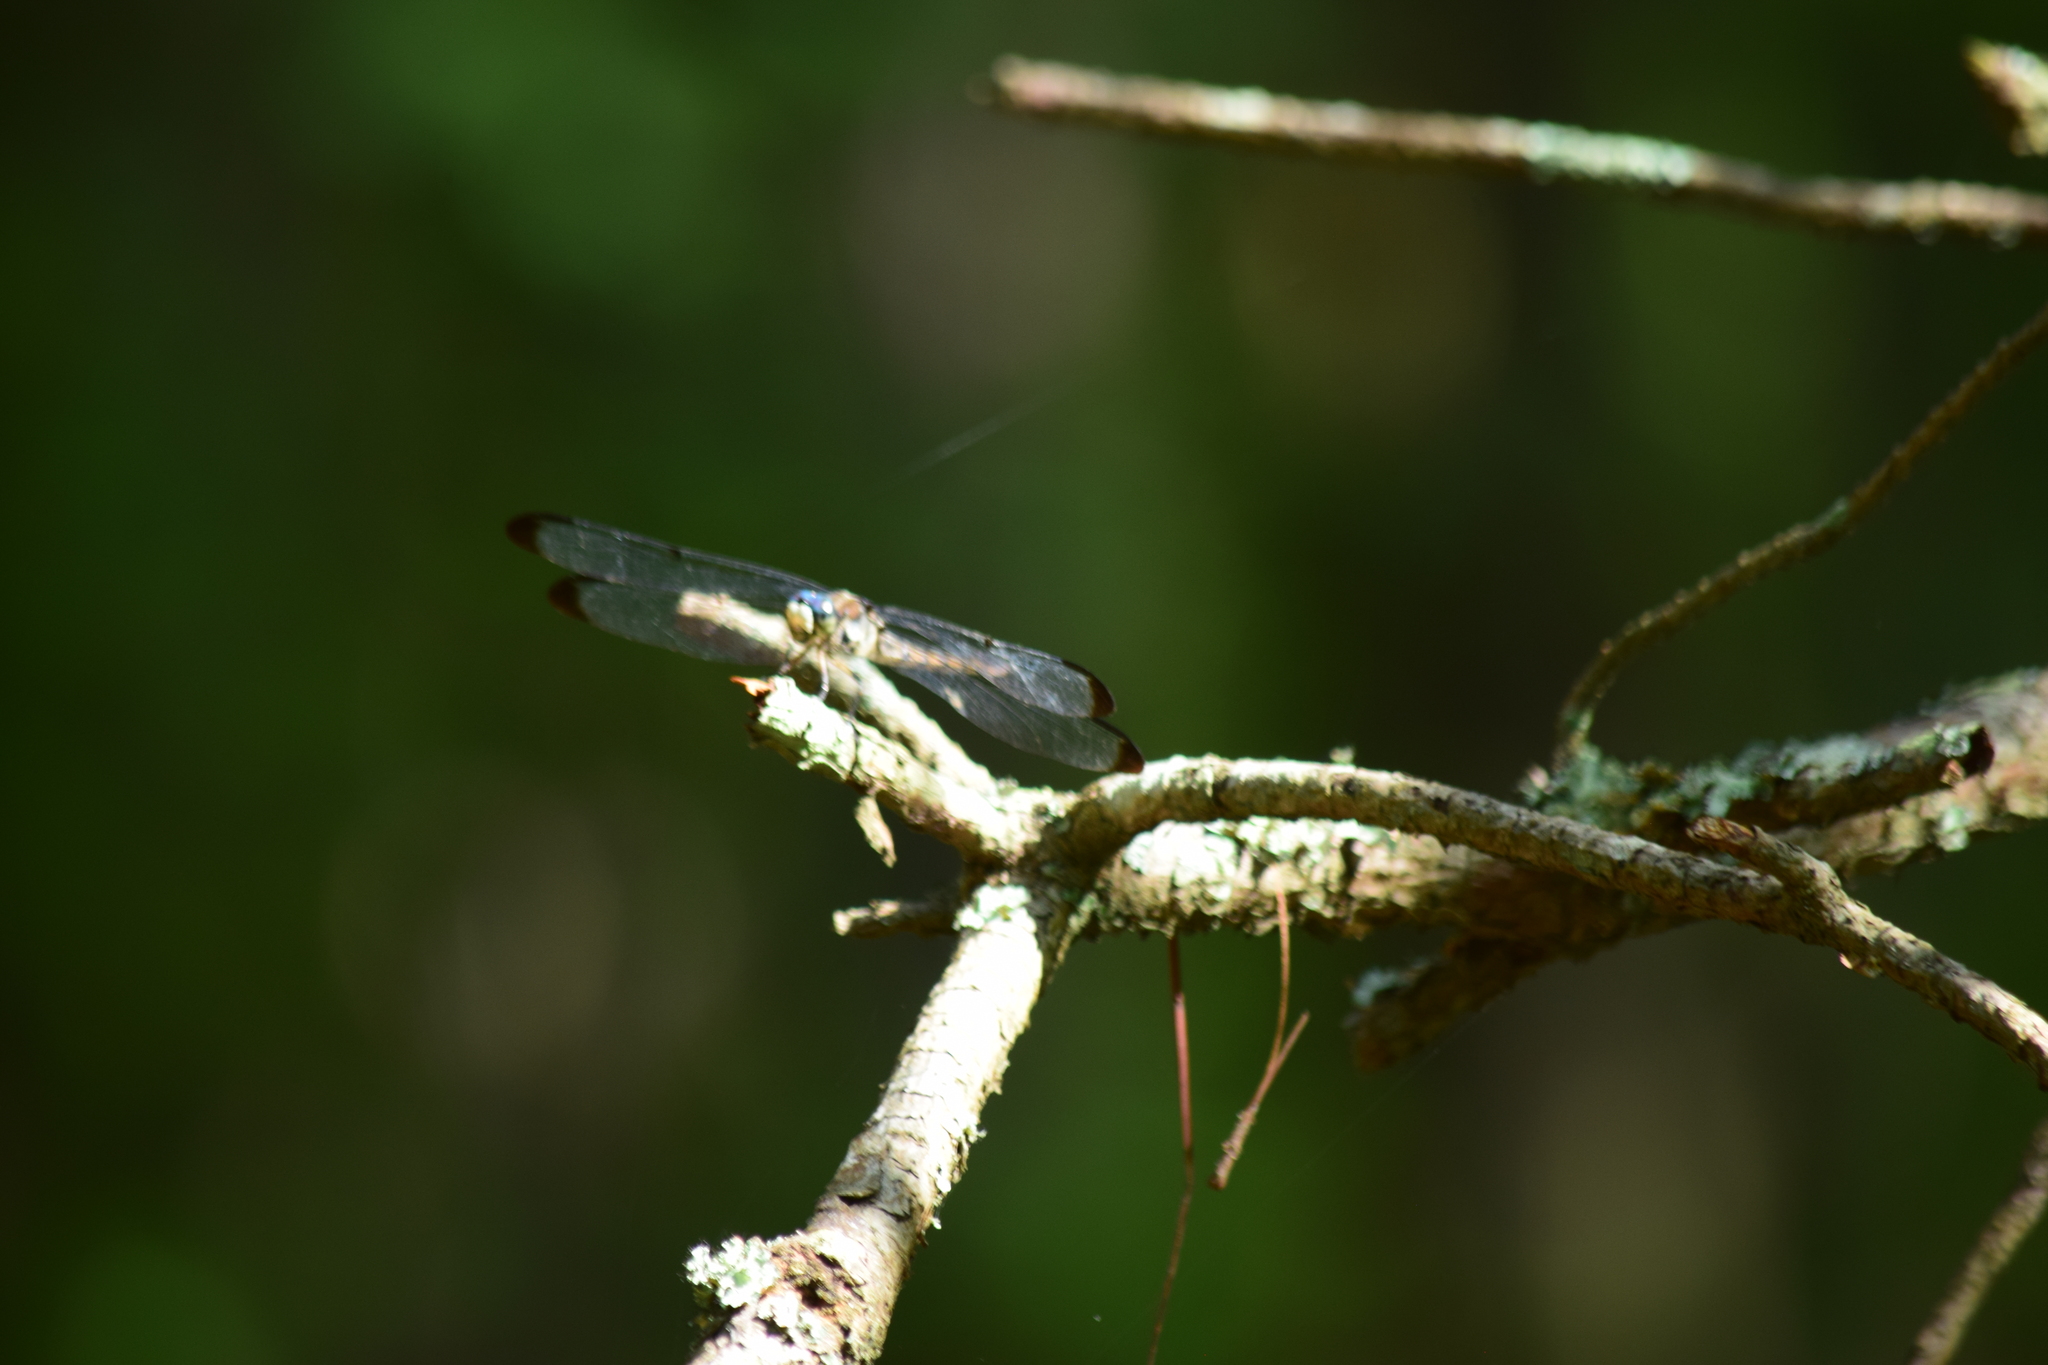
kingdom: Animalia
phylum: Arthropoda
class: Insecta
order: Odonata
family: Libellulidae
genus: Libellula
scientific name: Libellula vibrans
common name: Great blue skimmer
